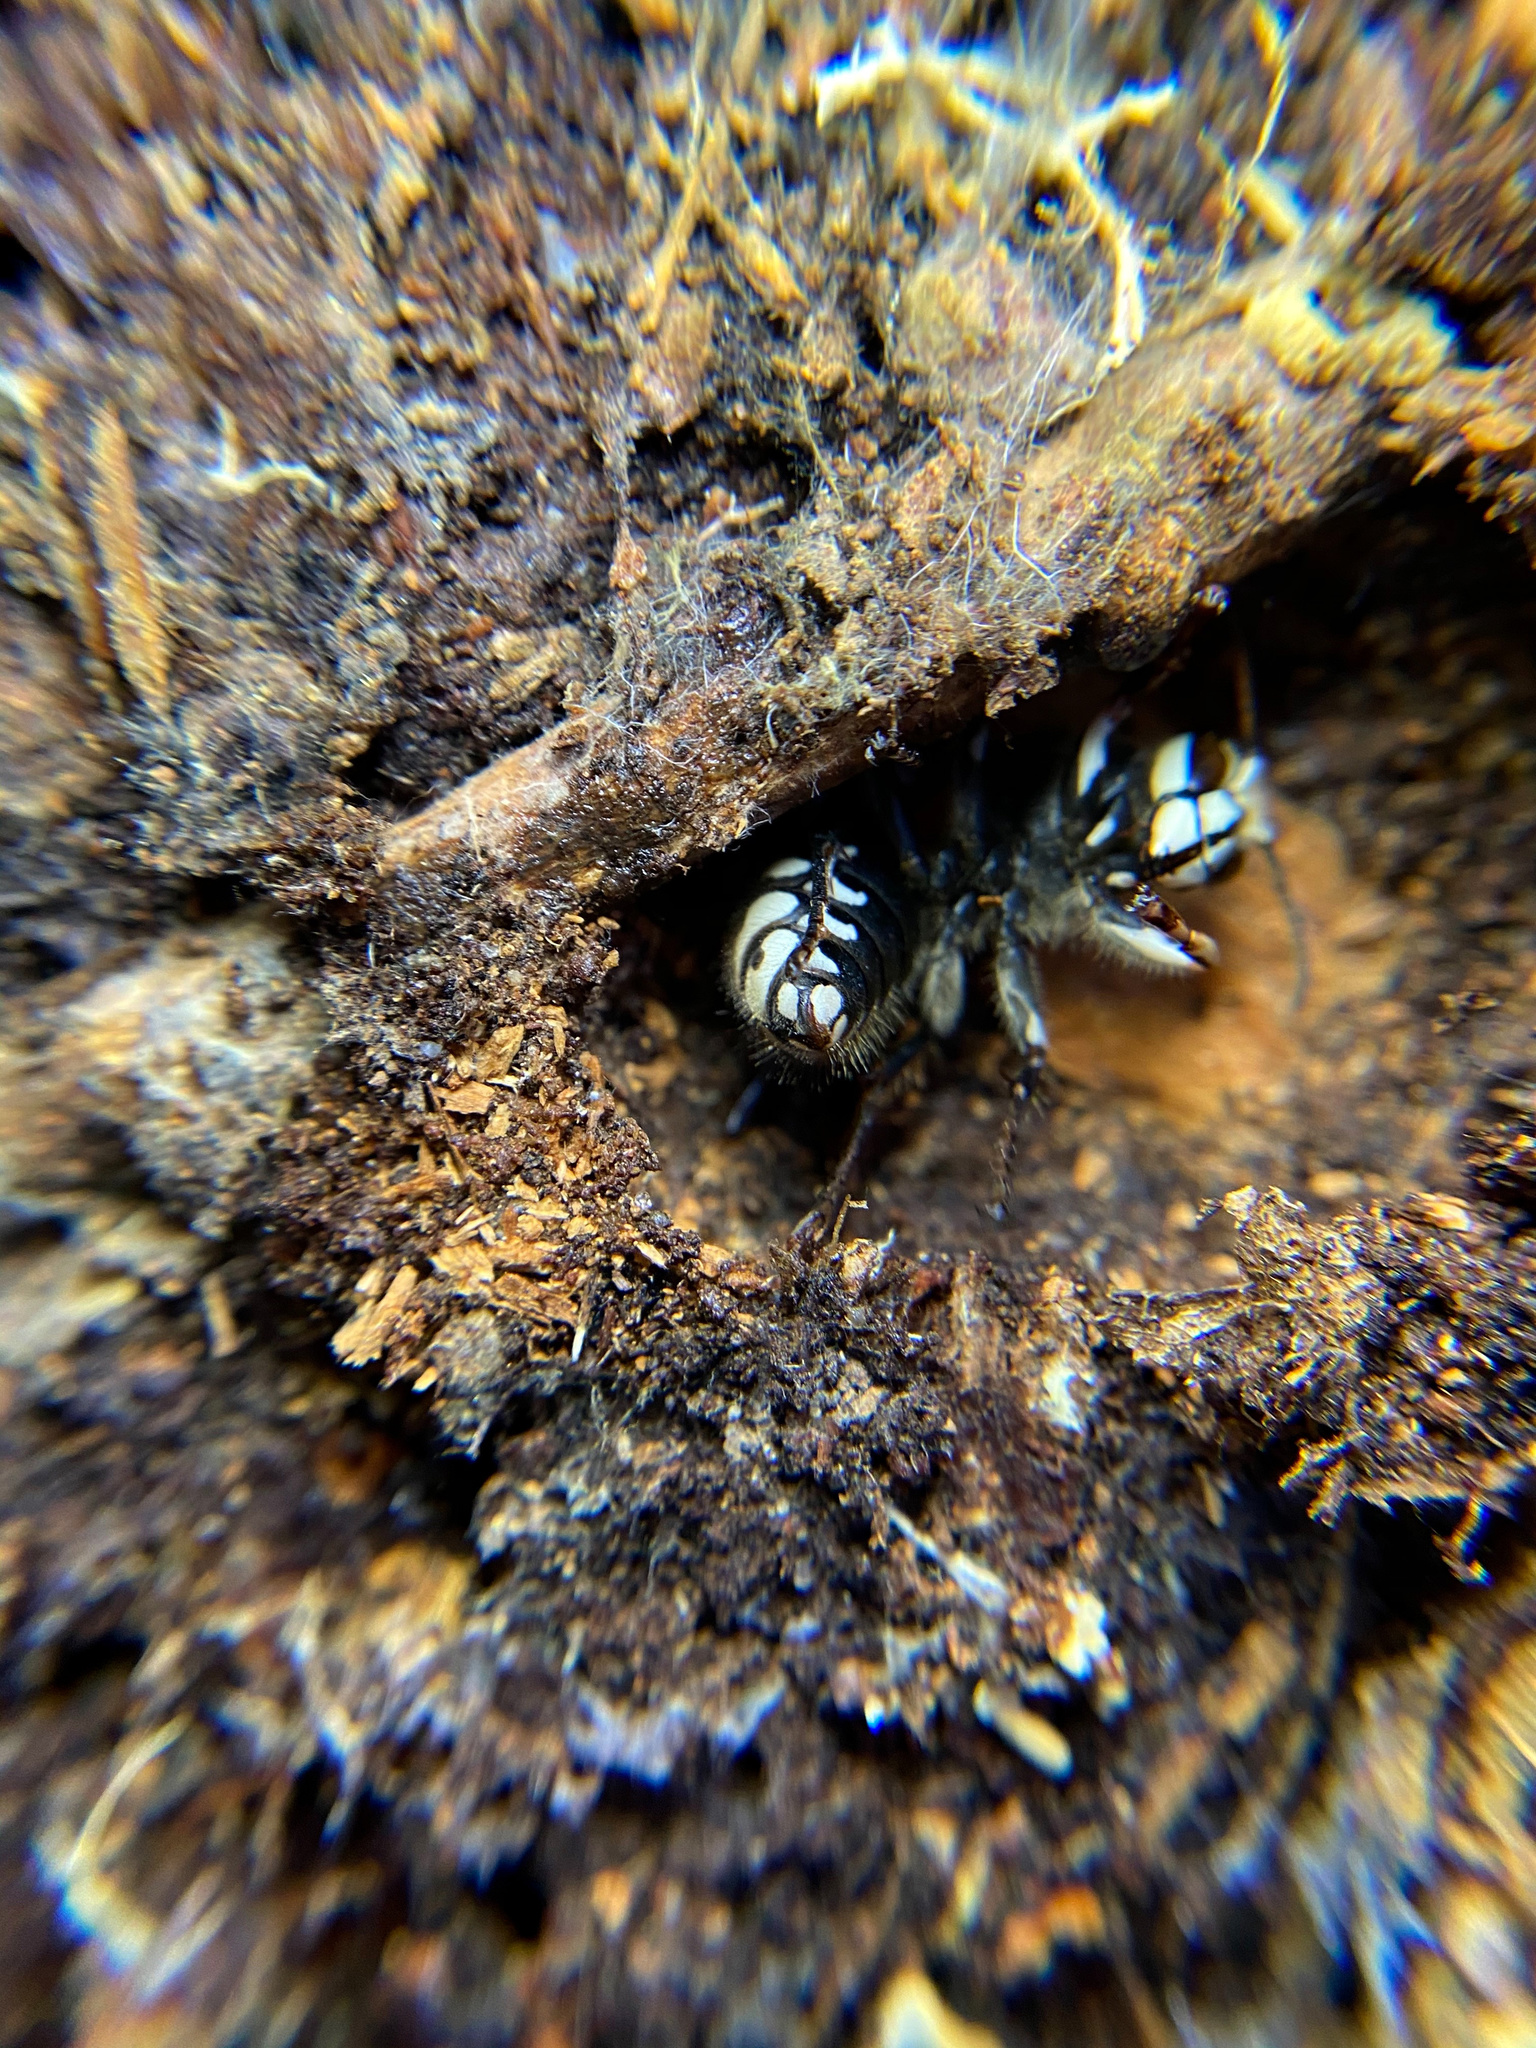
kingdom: Animalia
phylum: Arthropoda
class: Insecta
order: Hymenoptera
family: Vespidae
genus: Dolichovespula
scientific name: Dolichovespula maculata
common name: Bald-faced hornet
